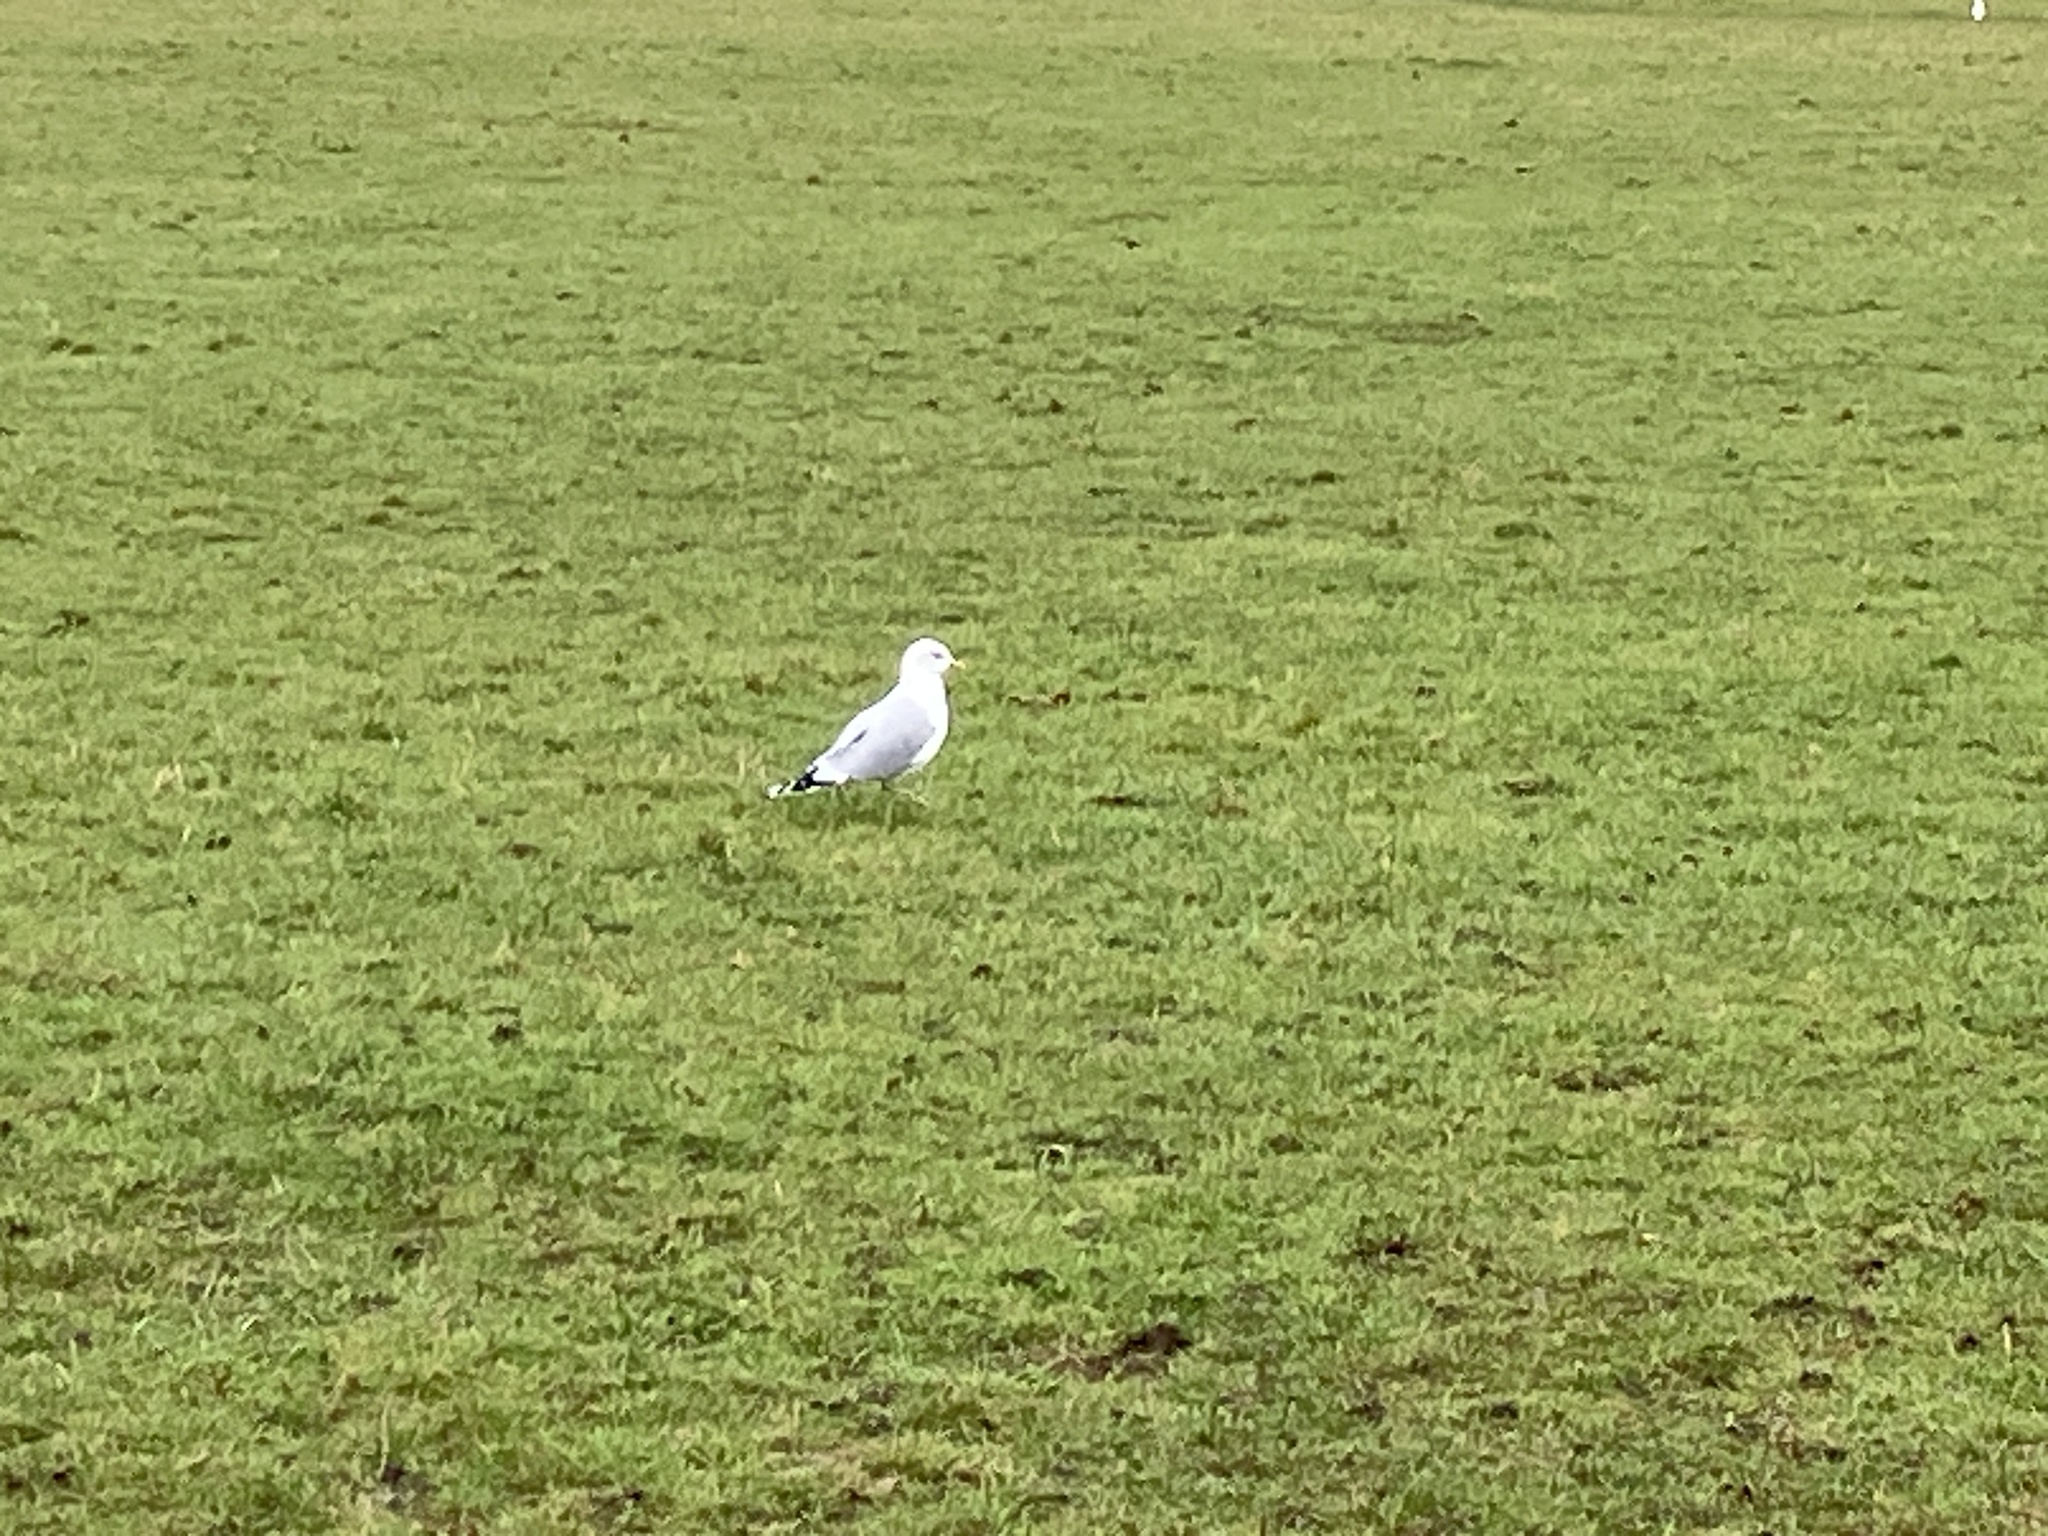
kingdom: Animalia
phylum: Chordata
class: Aves
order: Charadriiformes
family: Laridae
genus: Larus
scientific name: Larus argentatus
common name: Herring gull
